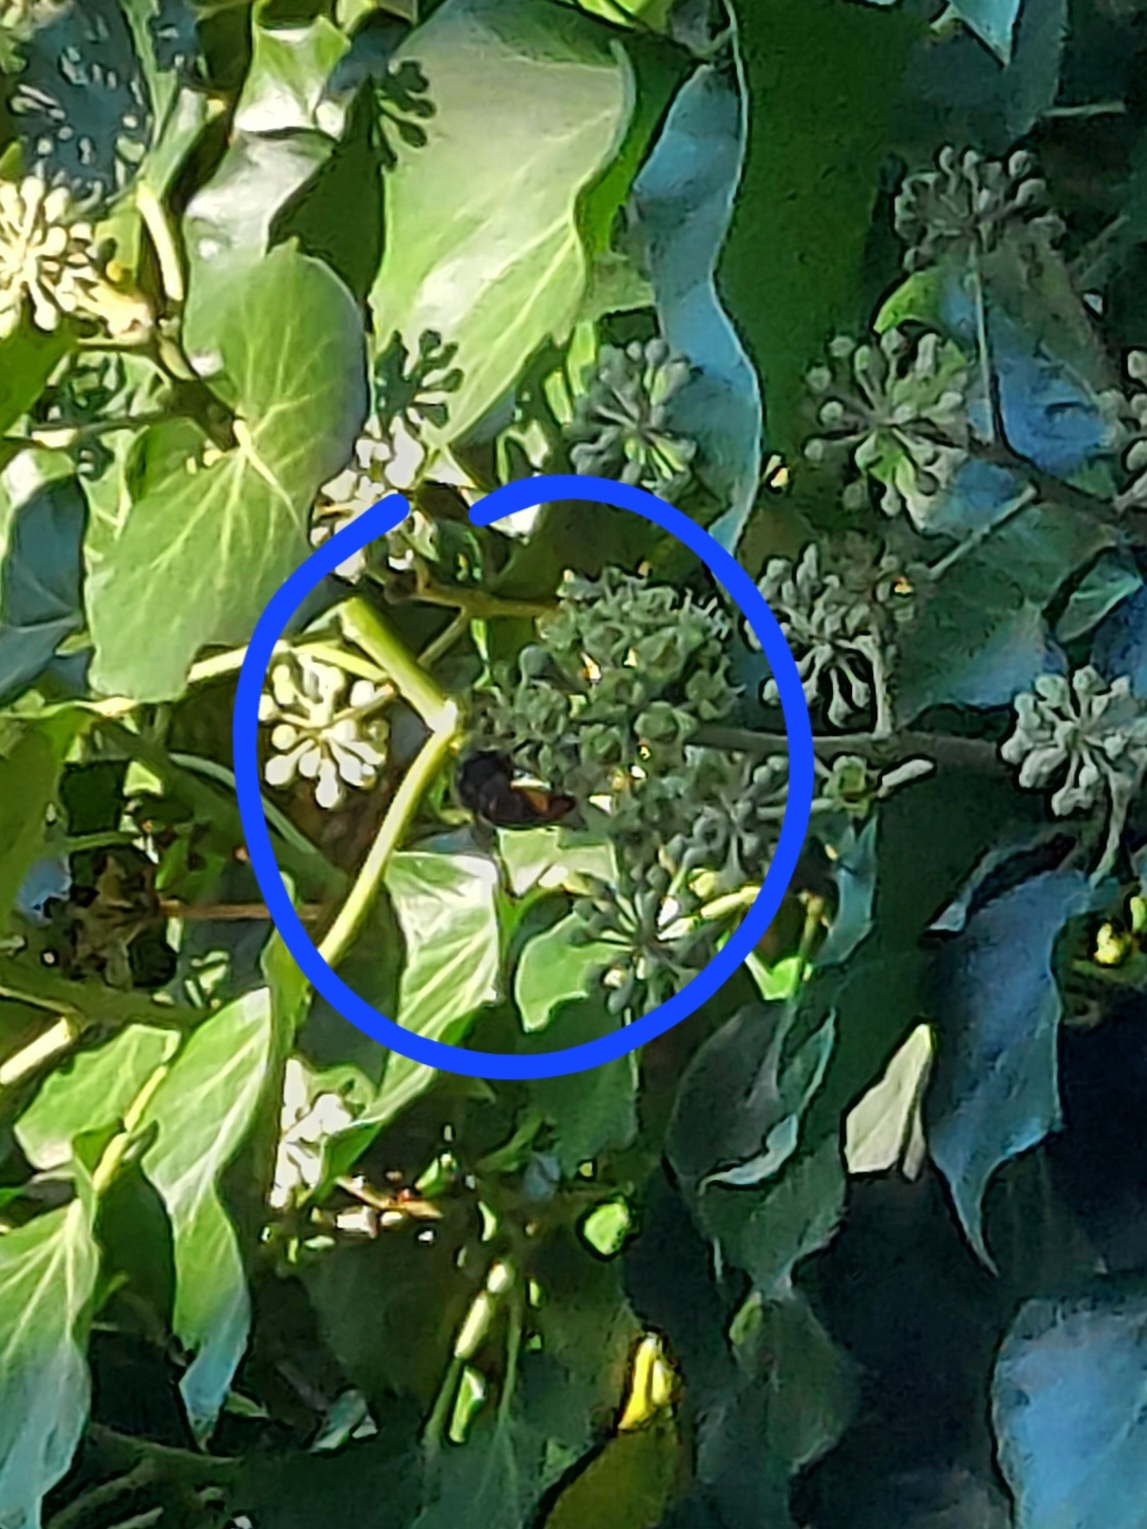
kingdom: Animalia
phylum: Arthropoda
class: Insecta
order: Hymenoptera
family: Vespidae
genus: Vespa
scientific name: Vespa velutina
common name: Asian hornet
